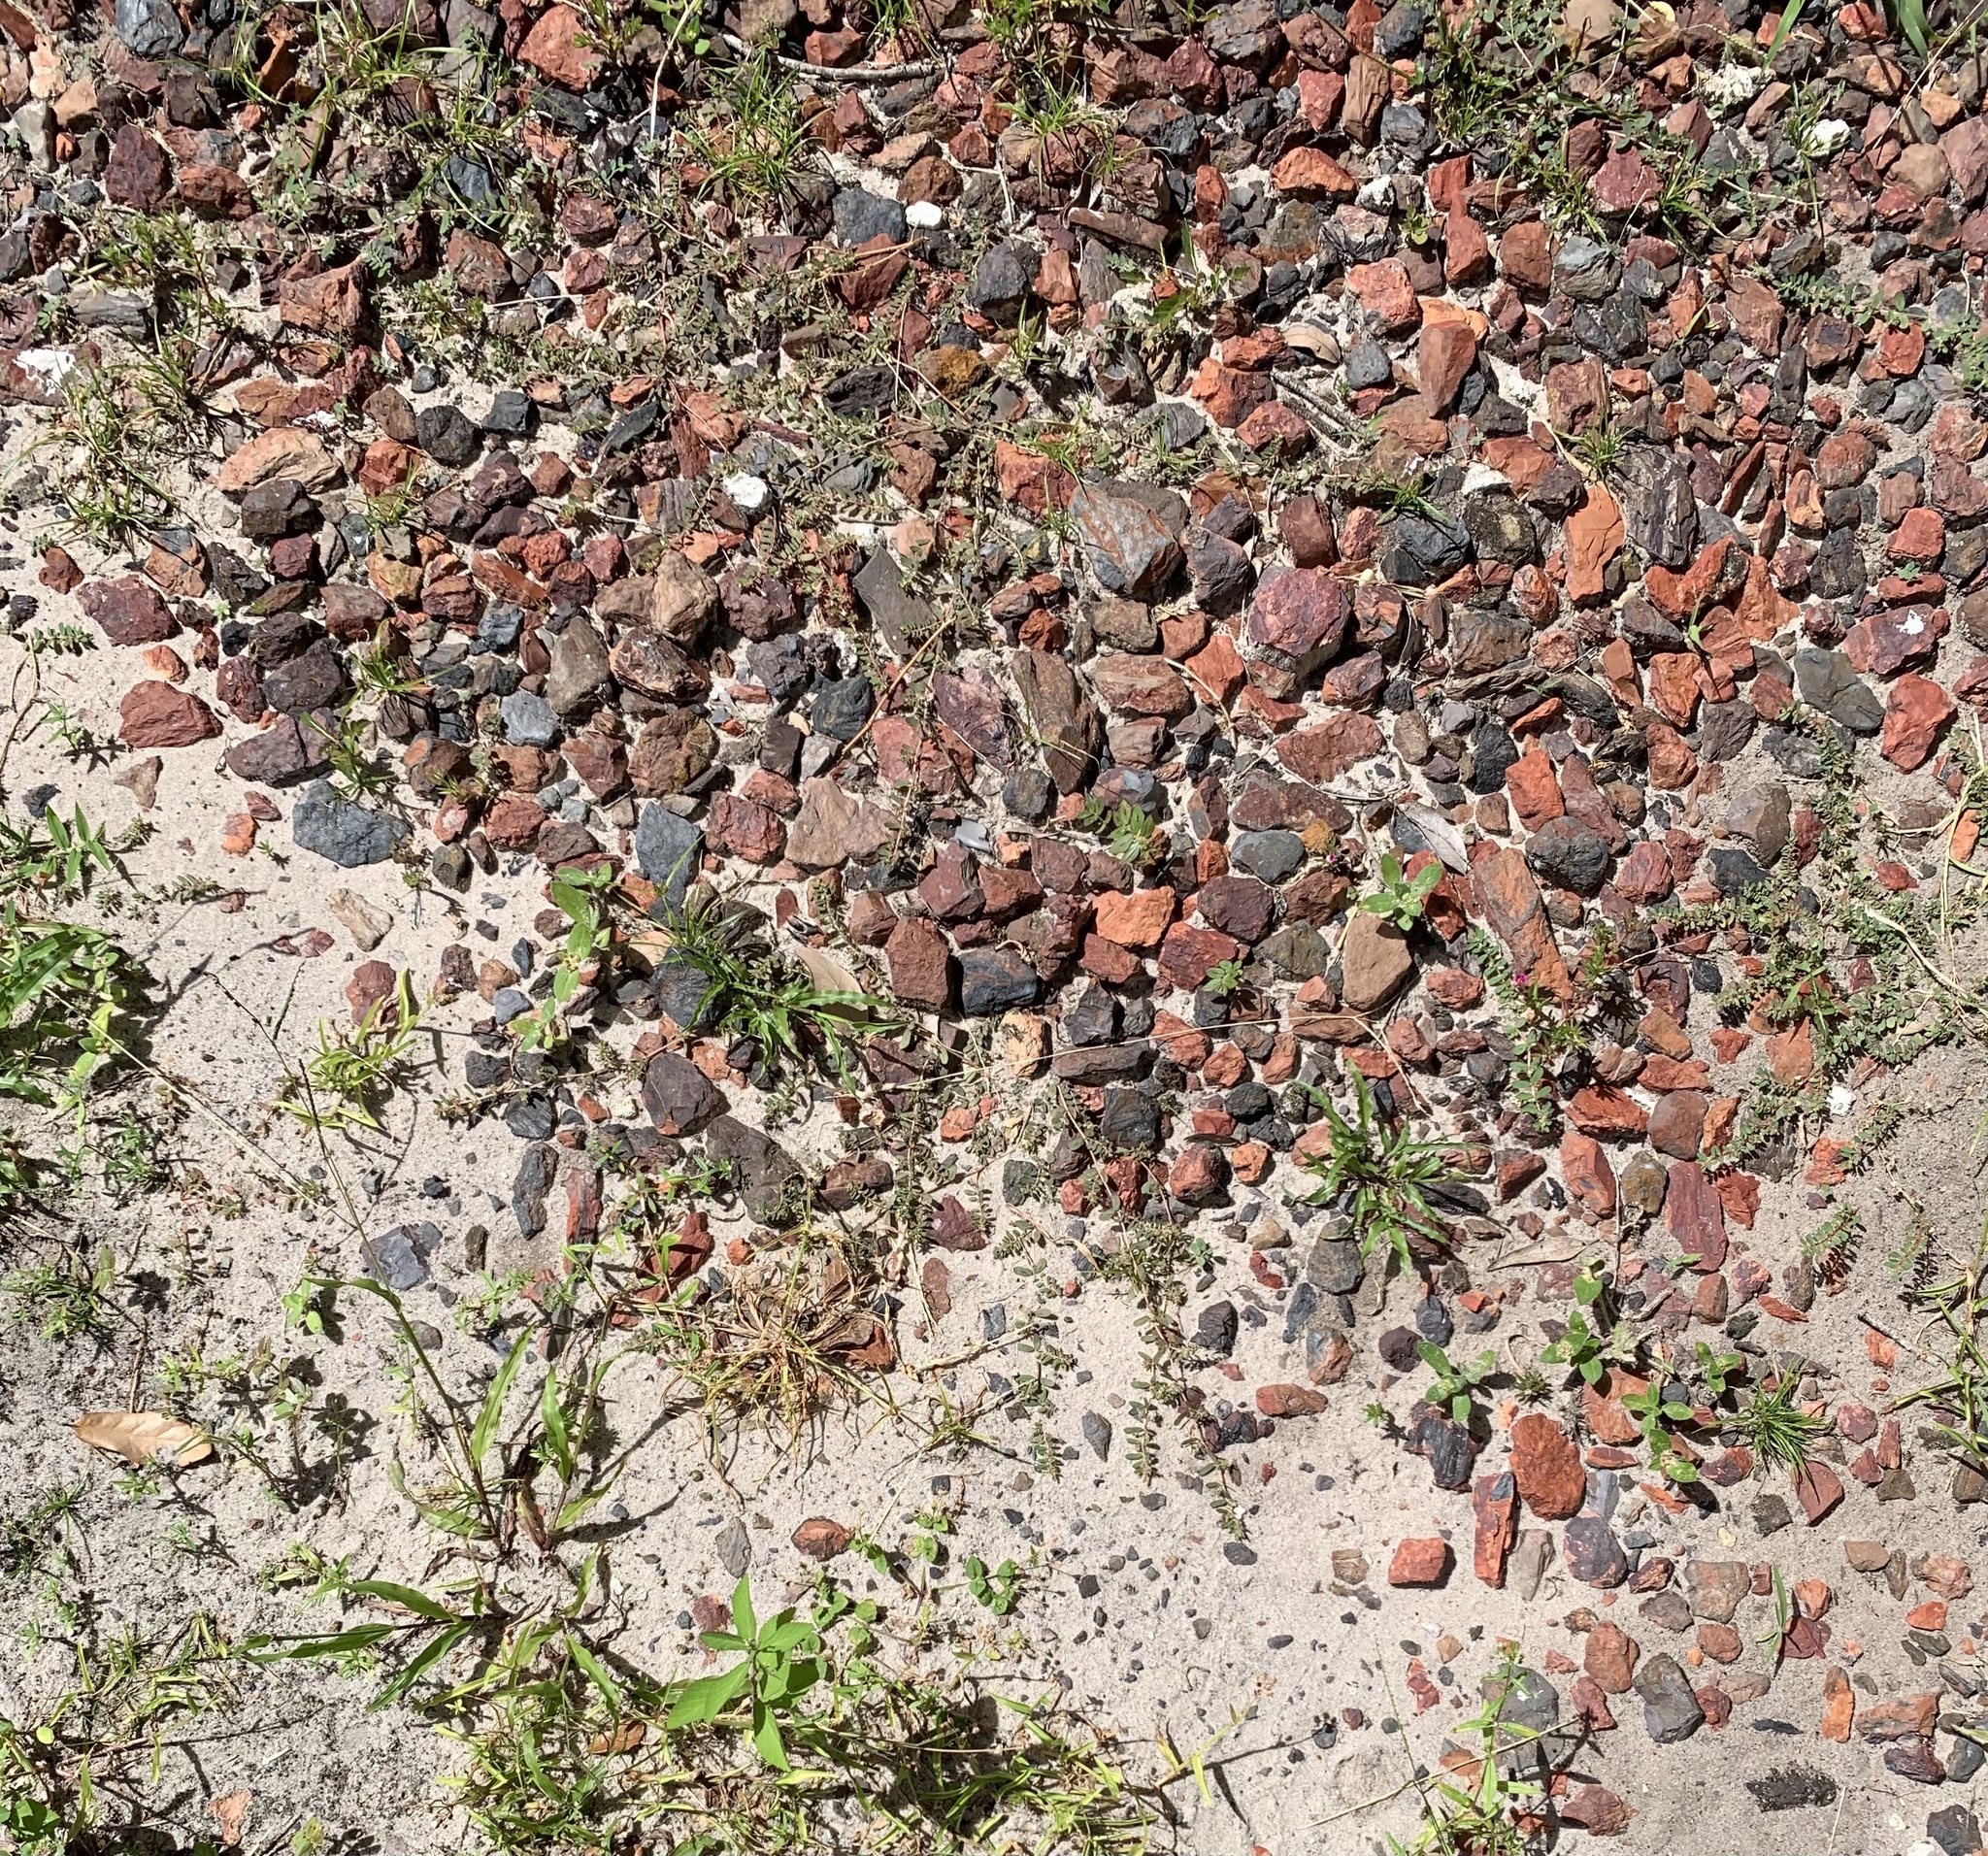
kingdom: Plantae
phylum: Tracheophyta
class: Magnoliopsida
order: Malpighiales
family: Euphorbiaceae
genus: Euphorbia
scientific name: Euphorbia maculata
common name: Spotted spurge
